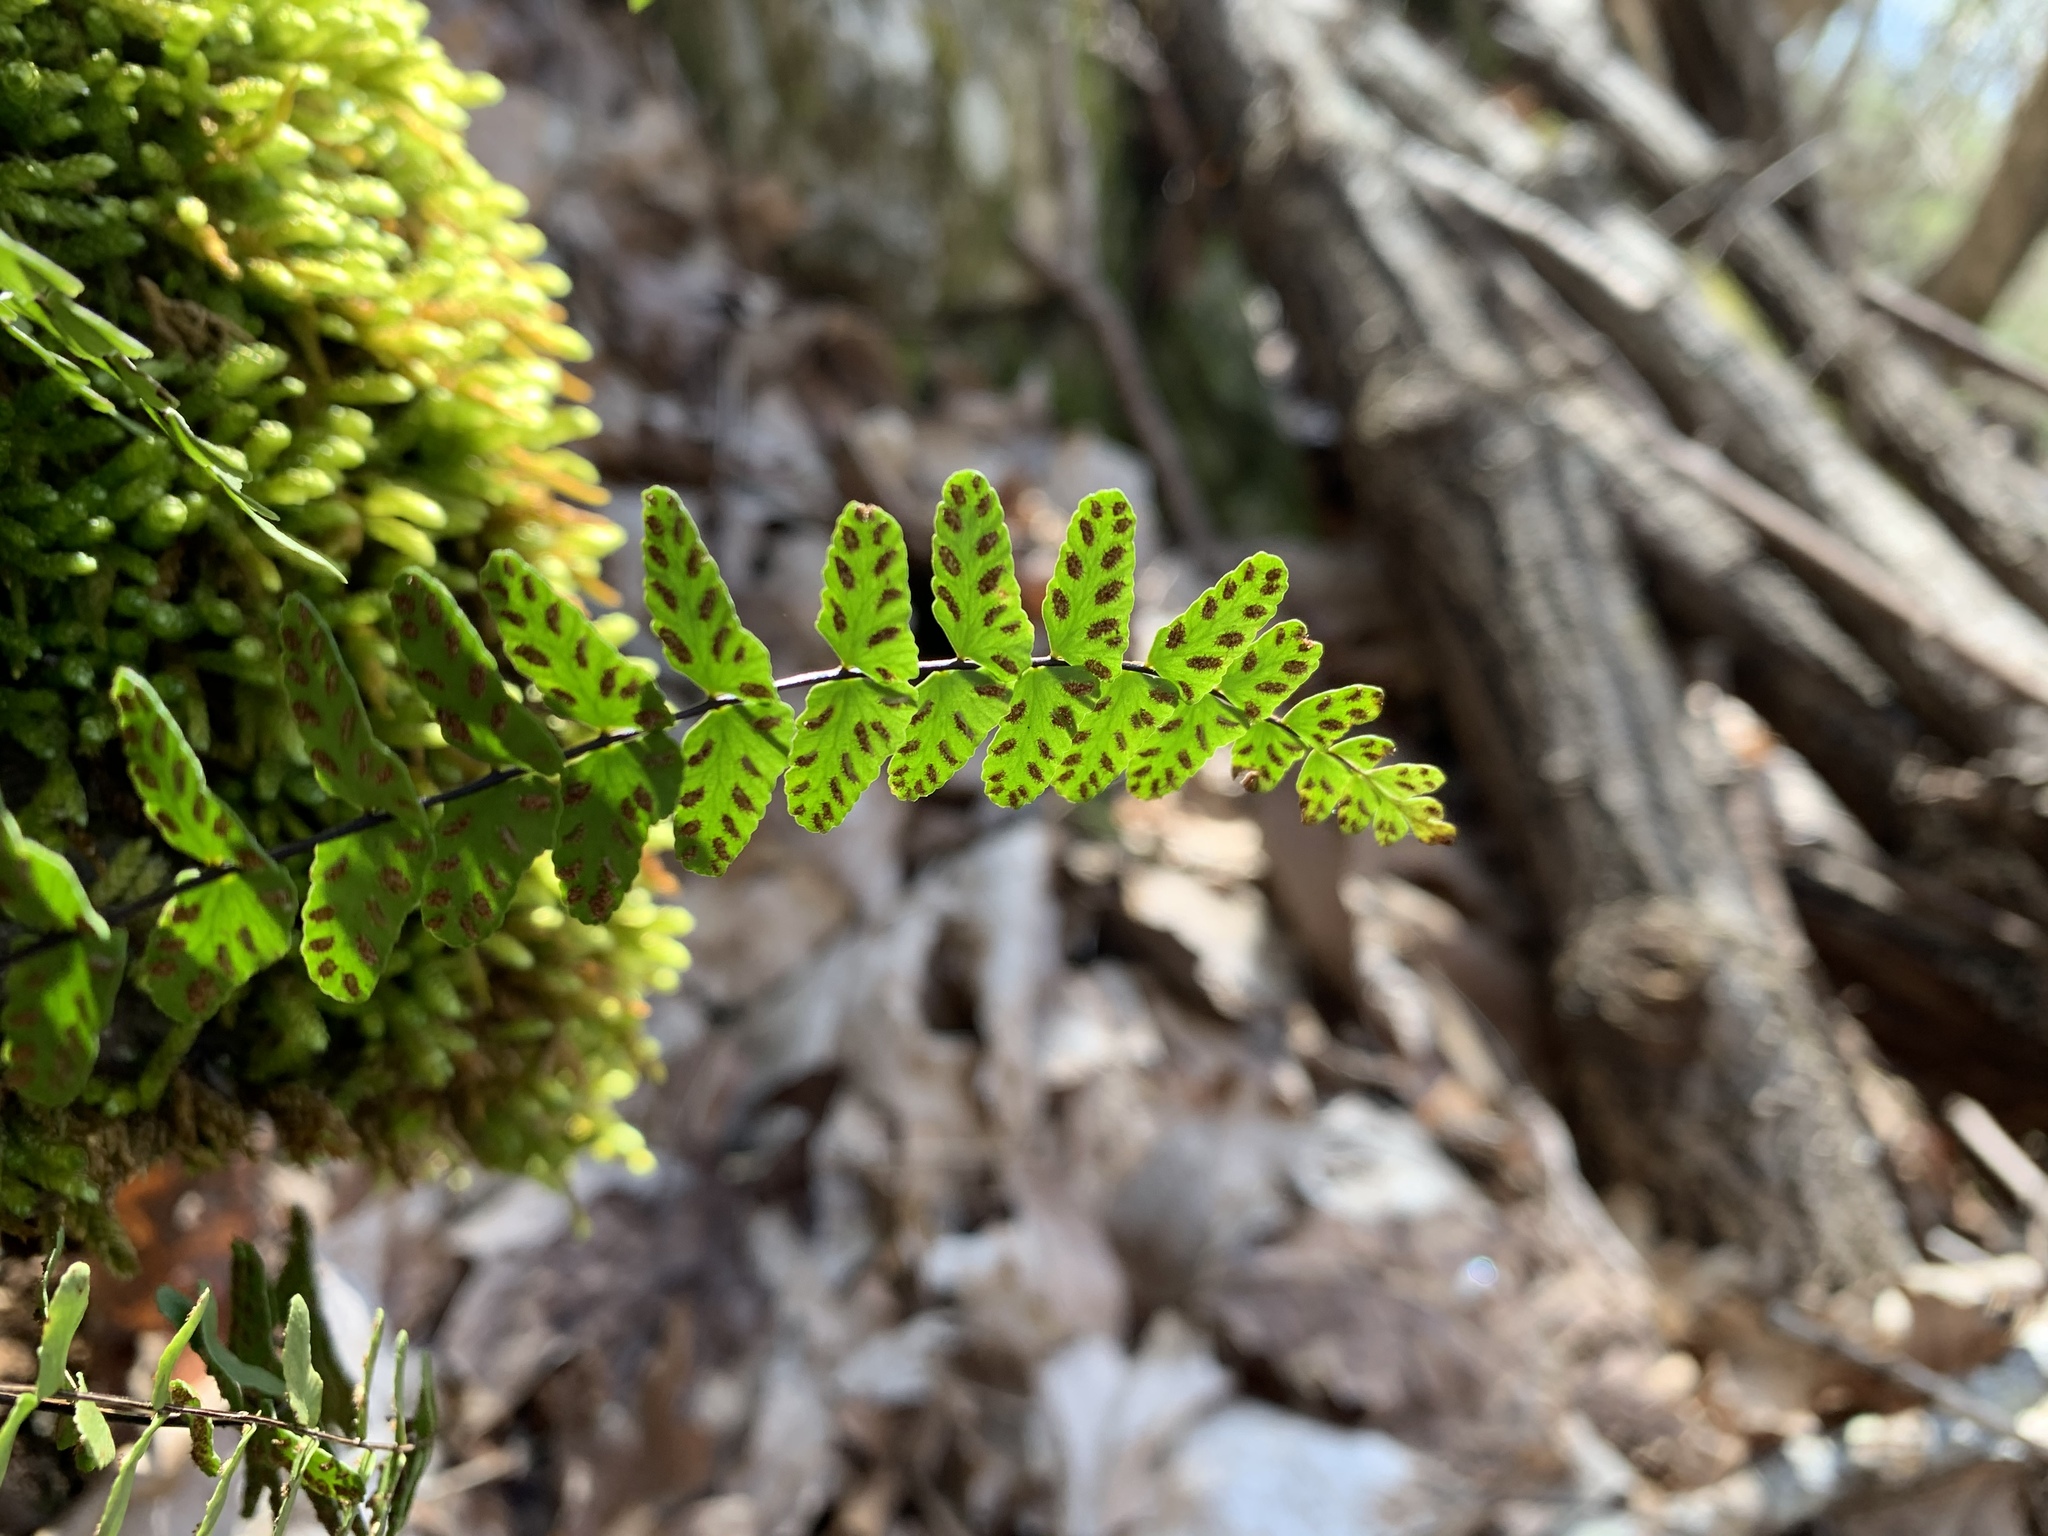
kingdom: Plantae
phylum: Tracheophyta
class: Polypodiopsida
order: Polypodiales
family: Aspleniaceae
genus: Asplenium
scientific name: Asplenium resiliens
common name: Blackstem spleenwort
